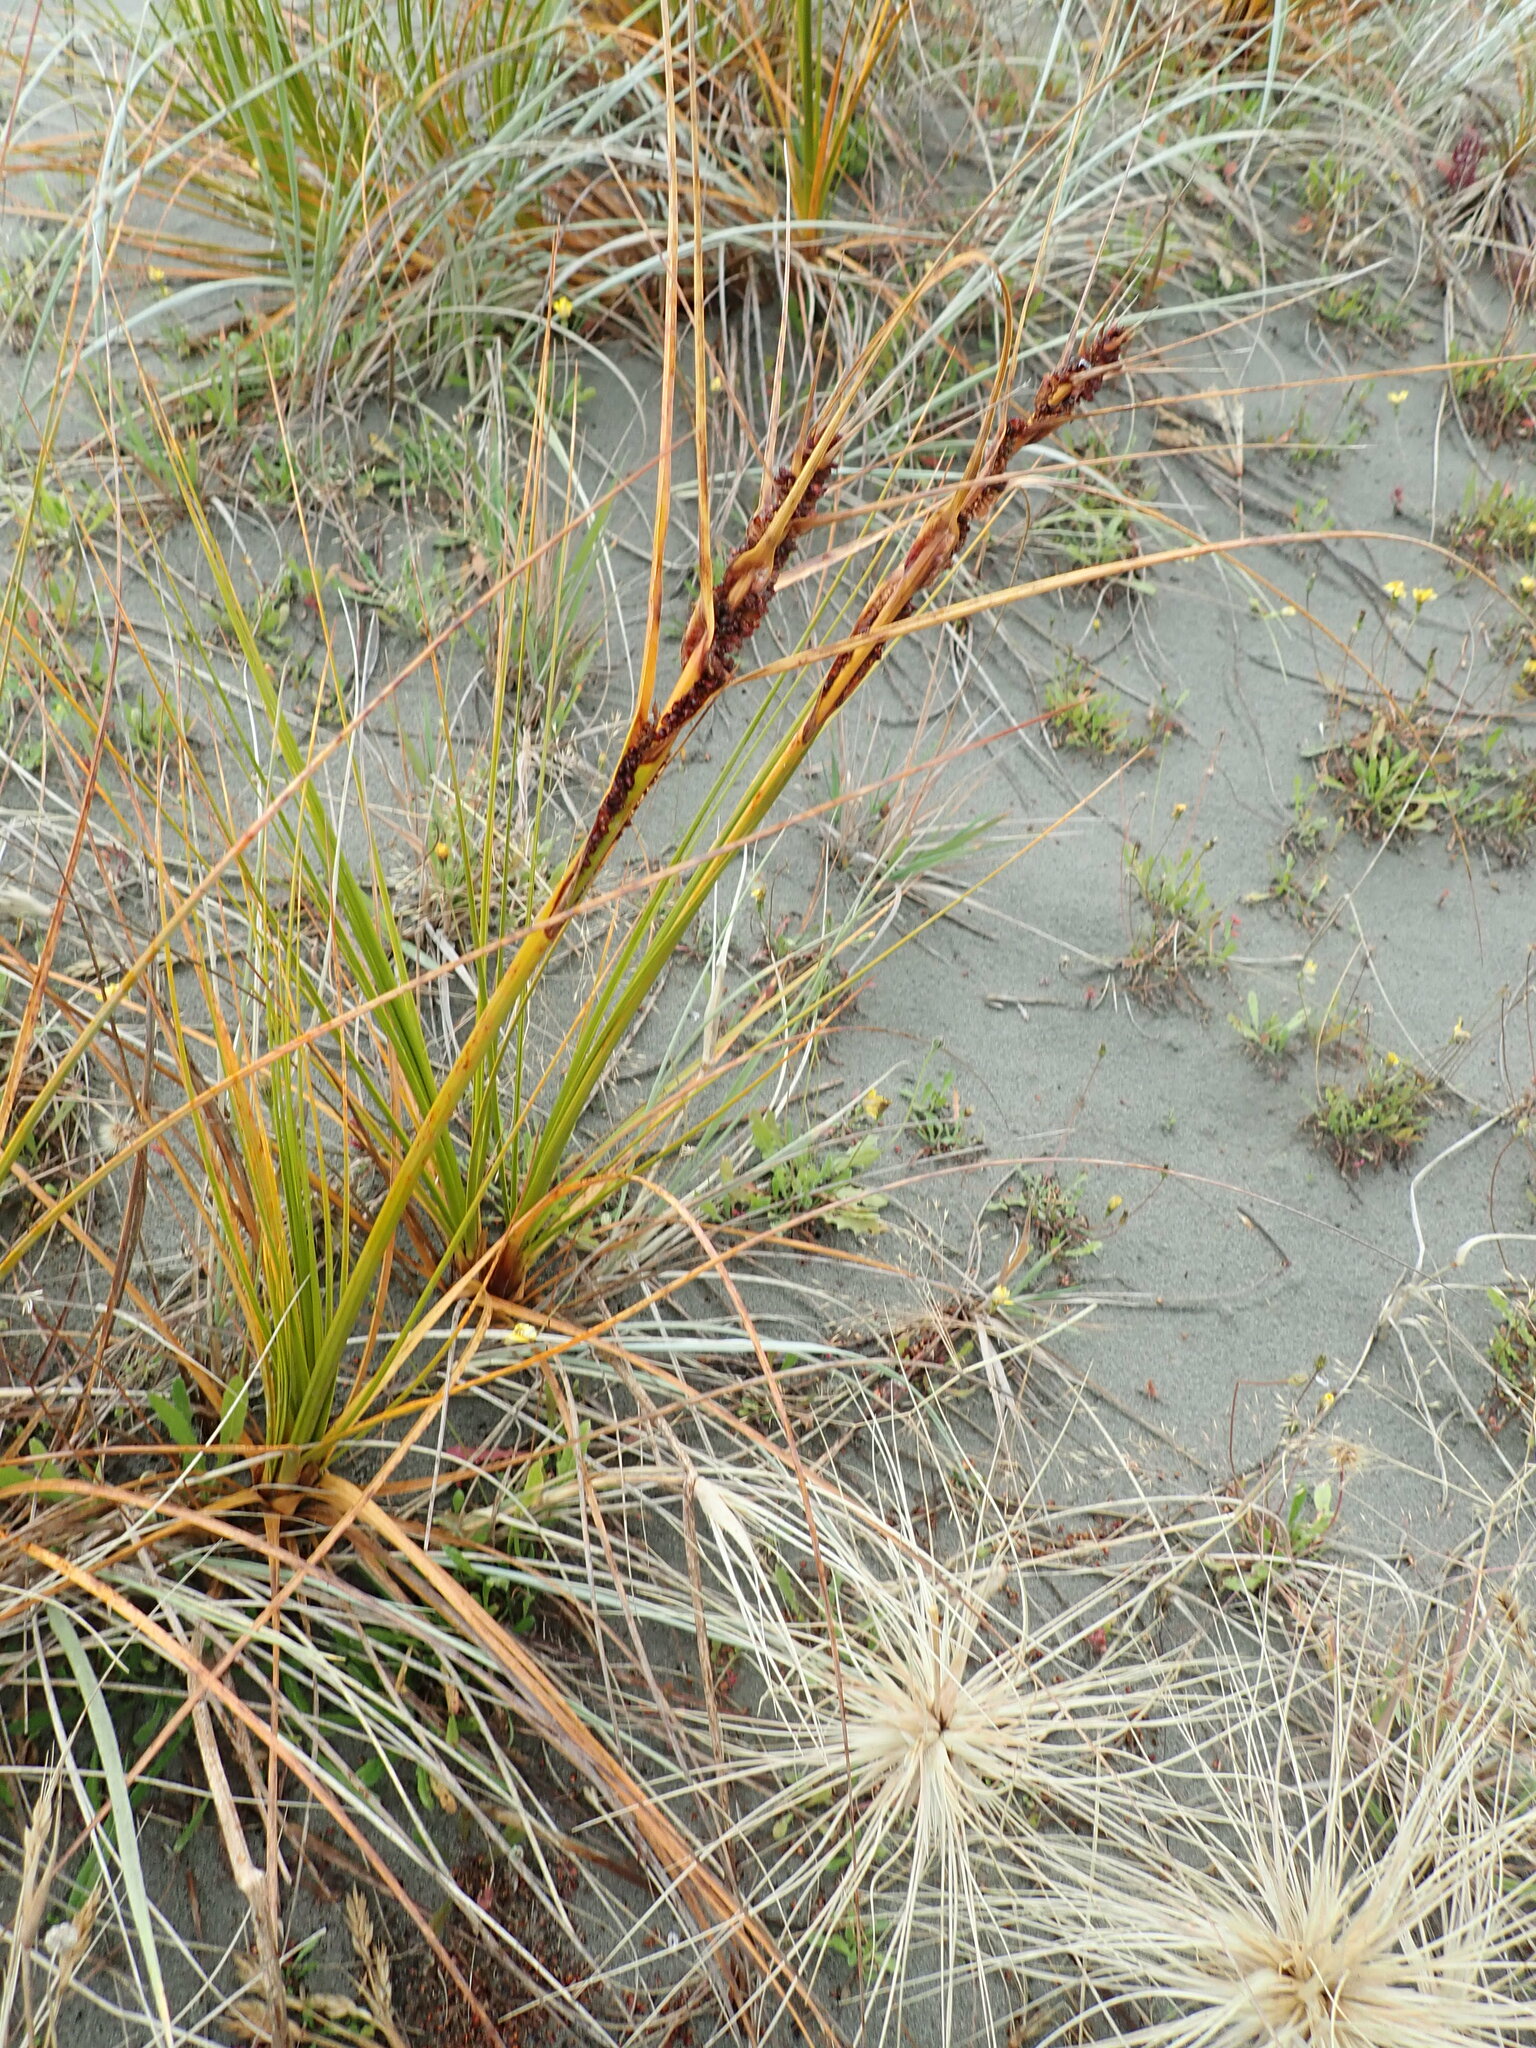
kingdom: Plantae
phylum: Tracheophyta
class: Liliopsida
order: Poales
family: Cyperaceae
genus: Ficinia
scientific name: Ficinia spiralis
